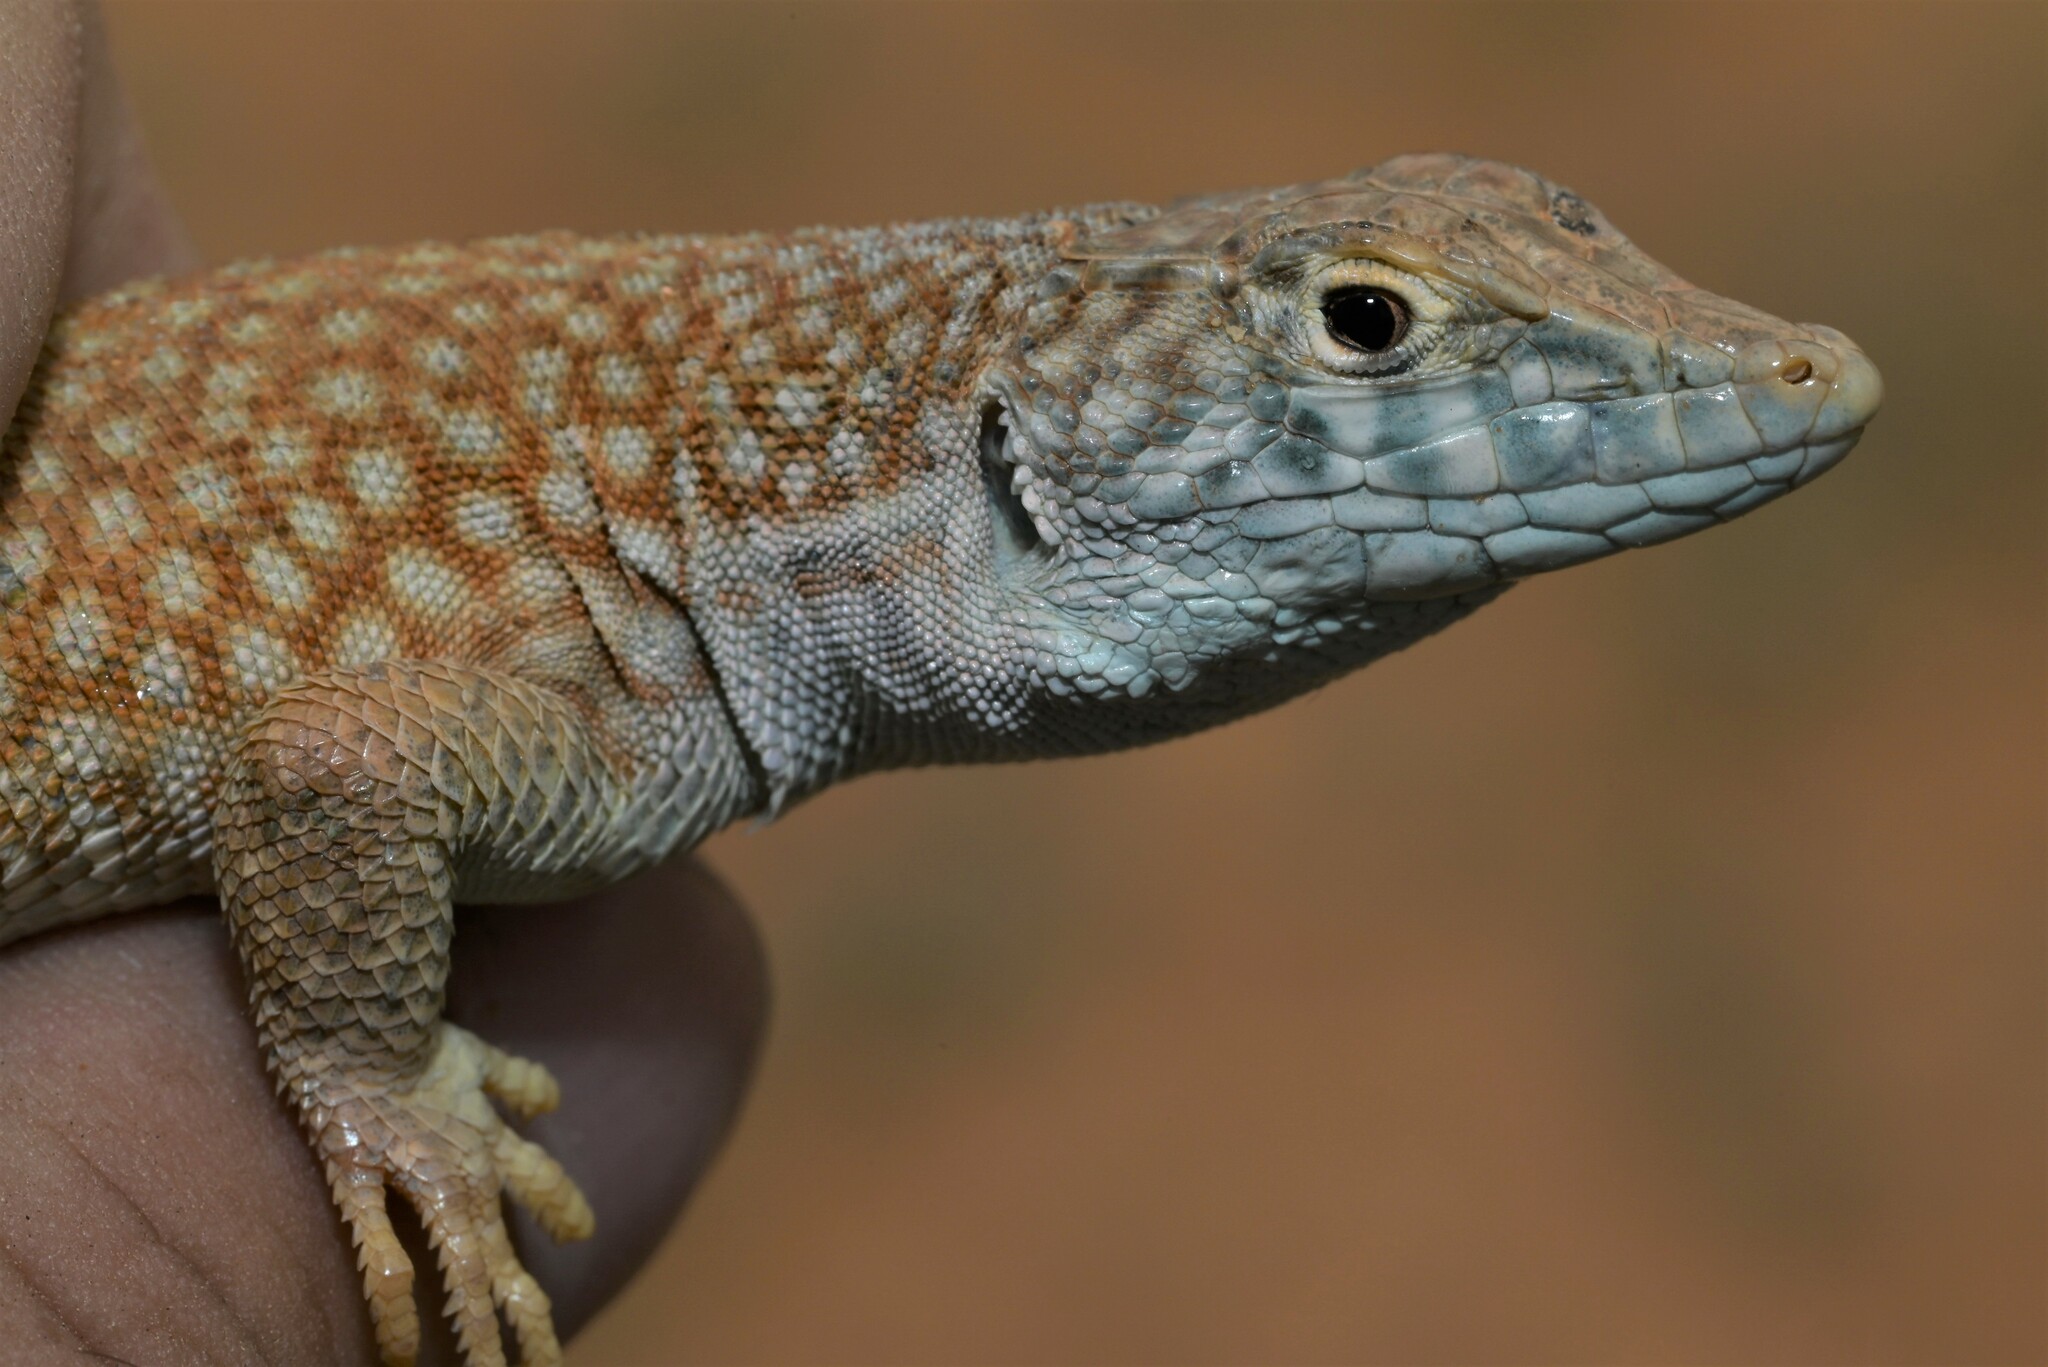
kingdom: Animalia
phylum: Chordata
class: Squamata
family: Lacertidae
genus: Acanthodactylus
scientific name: Acanthodactylus schmidti
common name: Schmidt's fringe-toed lizard
